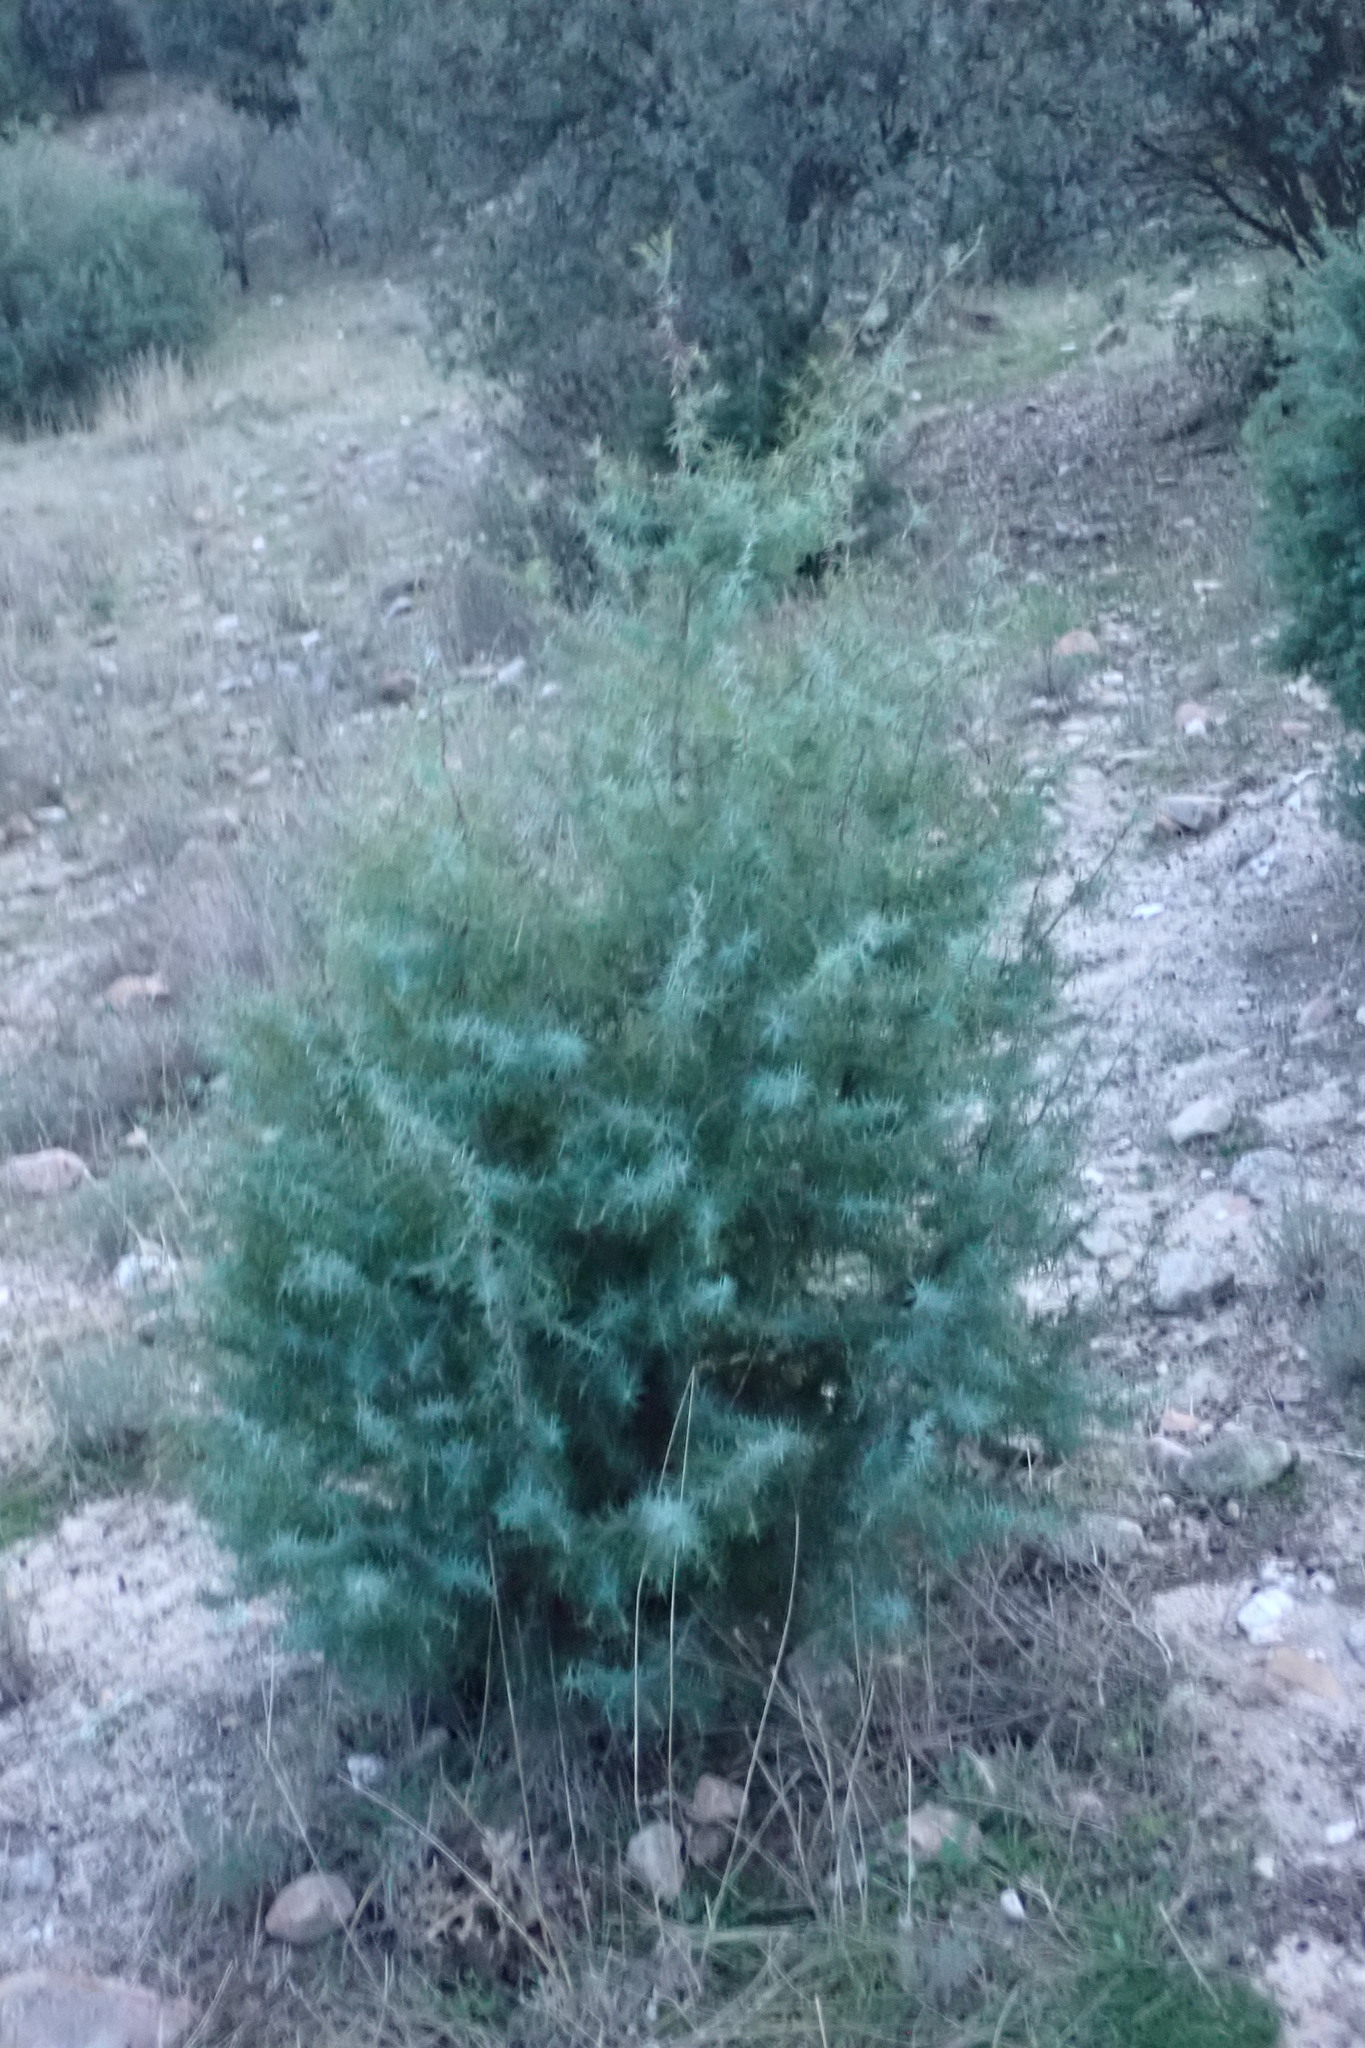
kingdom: Plantae
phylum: Tracheophyta
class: Pinopsida
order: Pinales
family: Cupressaceae
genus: Juniperus
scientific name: Juniperus oxycedrus
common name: Prickly juniper
